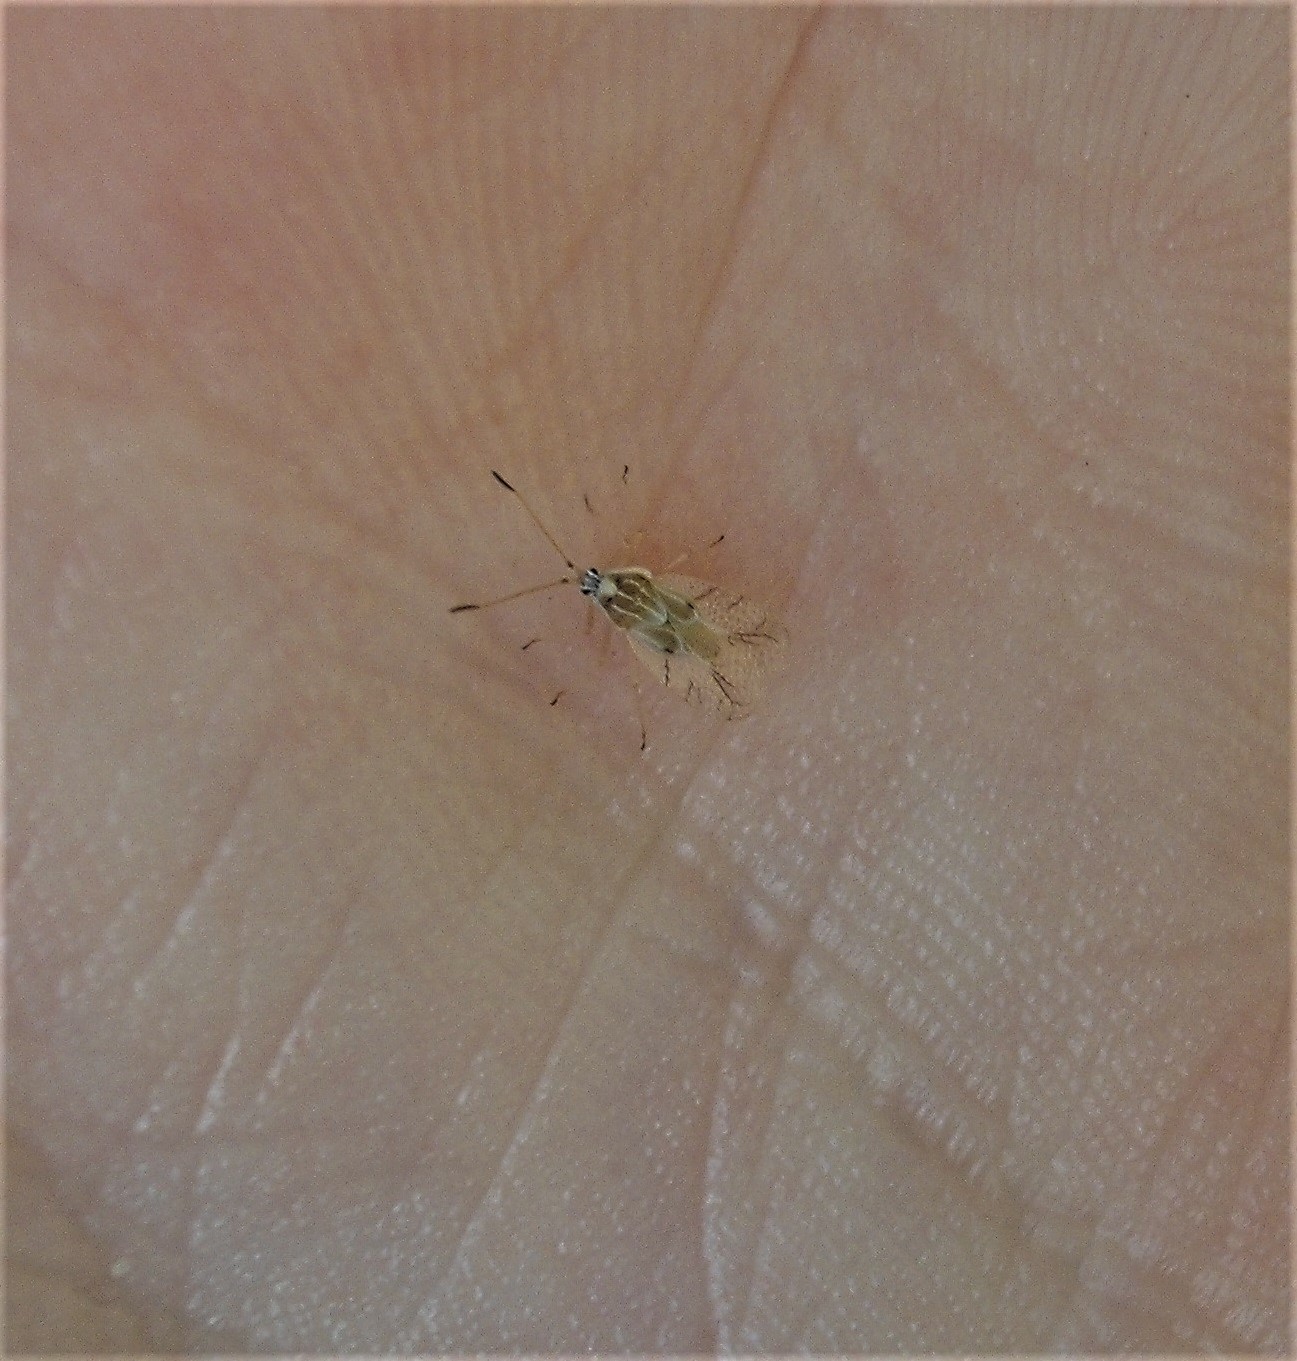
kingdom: Animalia
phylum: Arthropoda
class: Insecta
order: Hemiptera
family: Tingidae
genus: Gargaphia
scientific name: Gargaphia decoris
